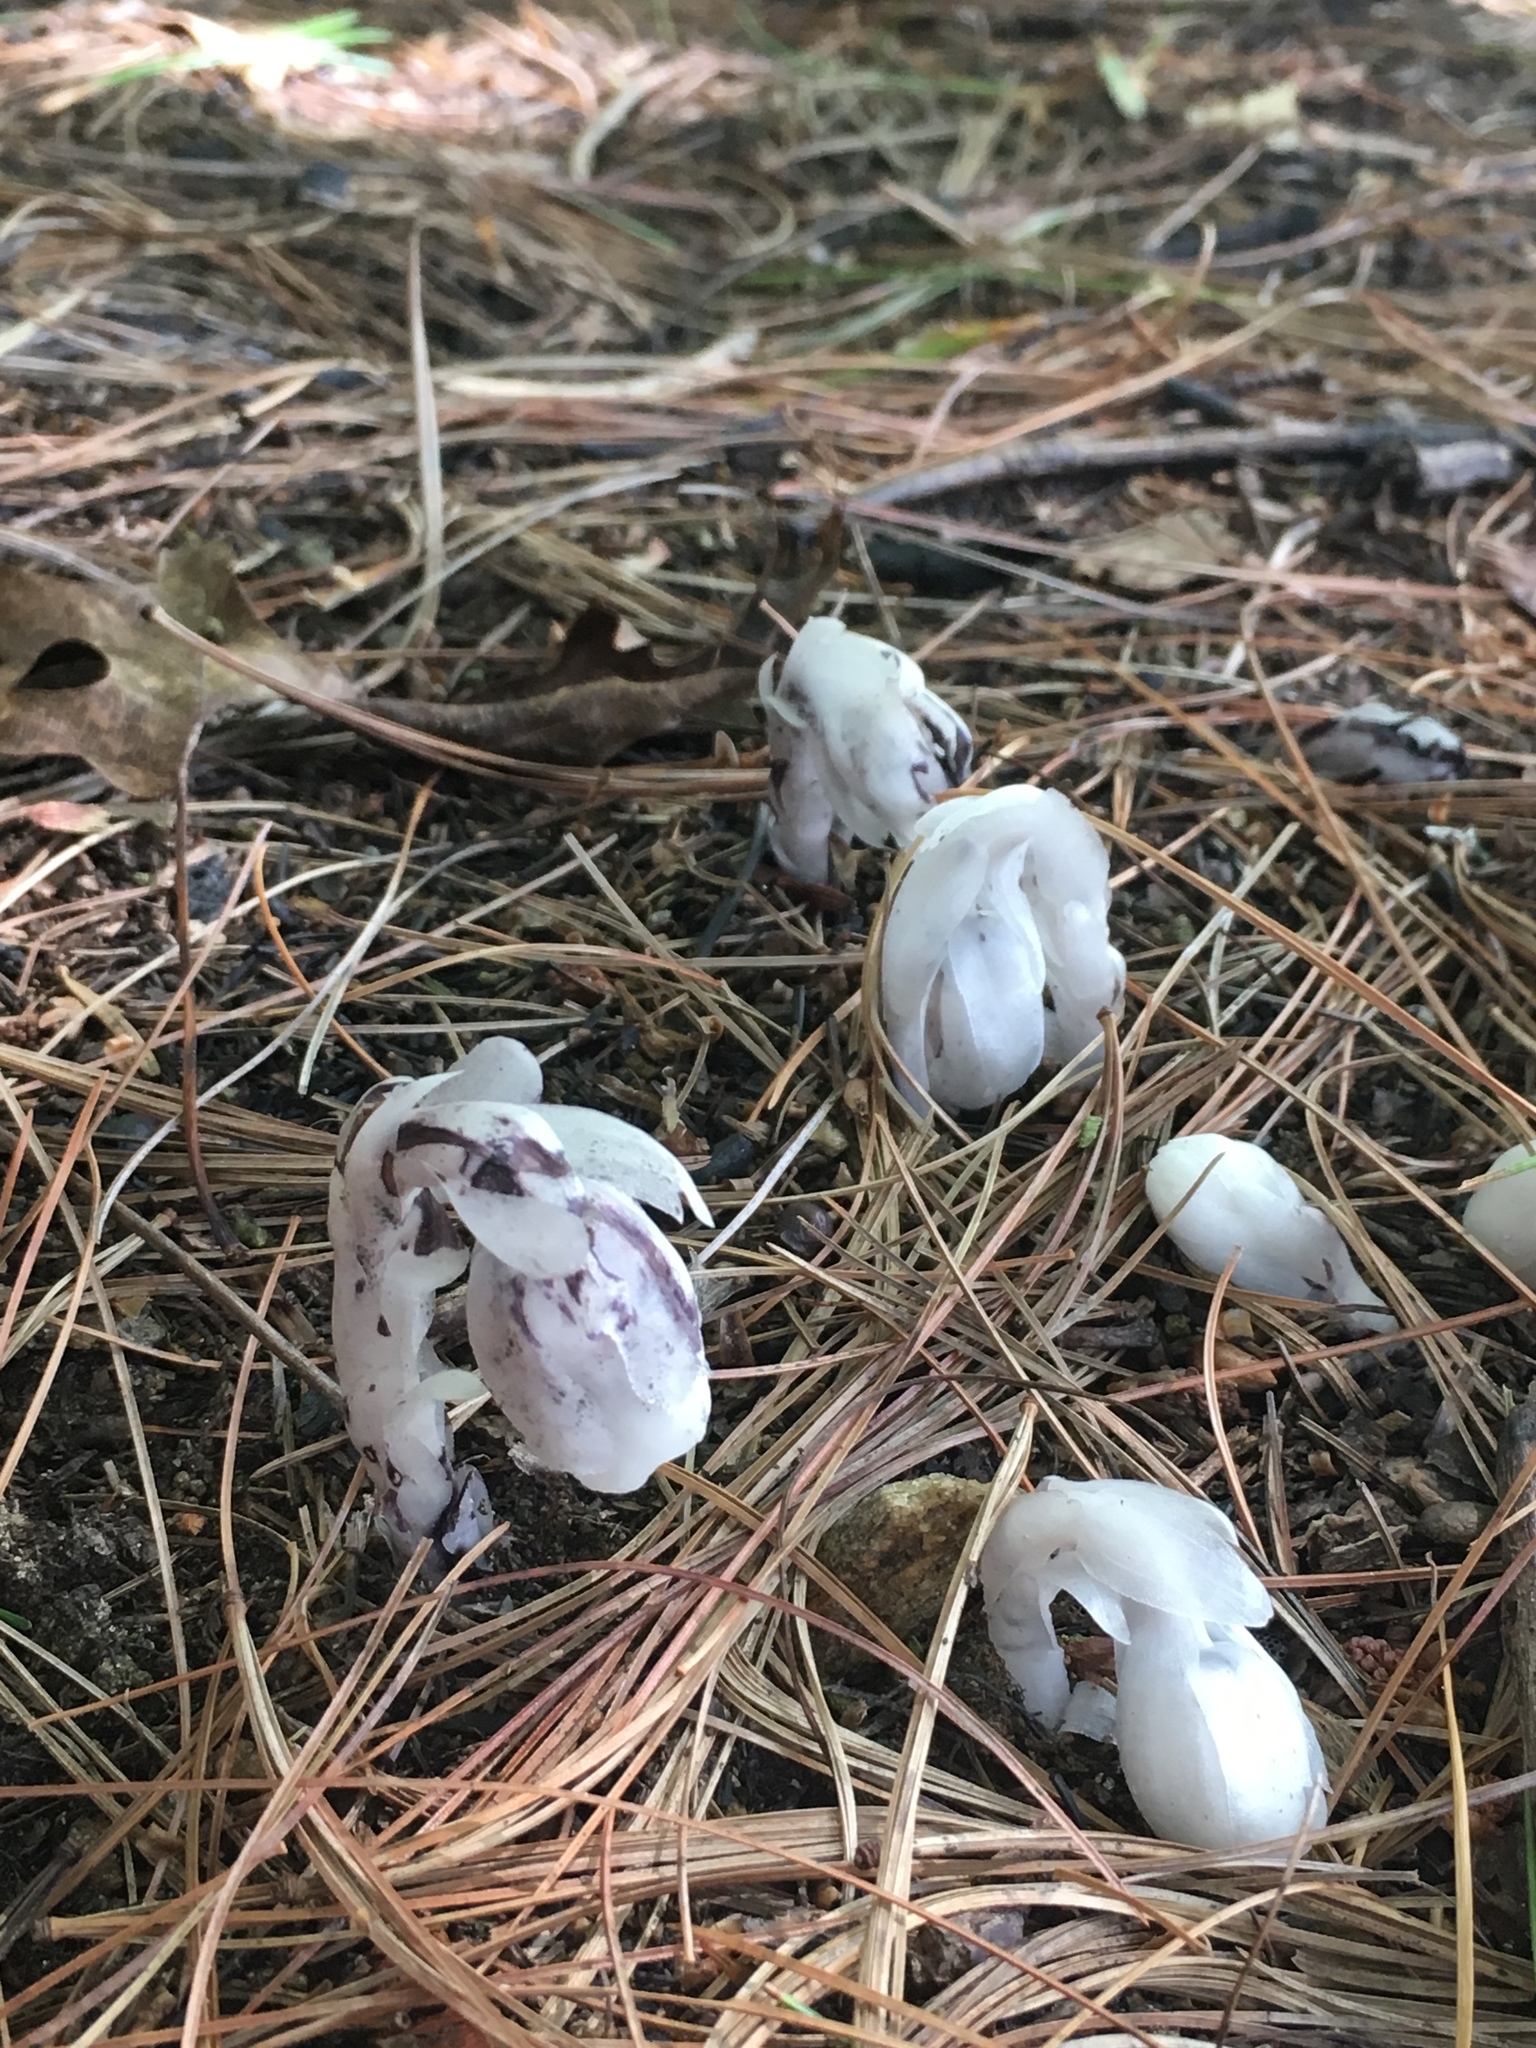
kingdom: Plantae
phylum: Tracheophyta
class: Magnoliopsida
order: Ericales
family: Ericaceae
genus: Monotropa
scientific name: Monotropa uniflora
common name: Convulsion root
